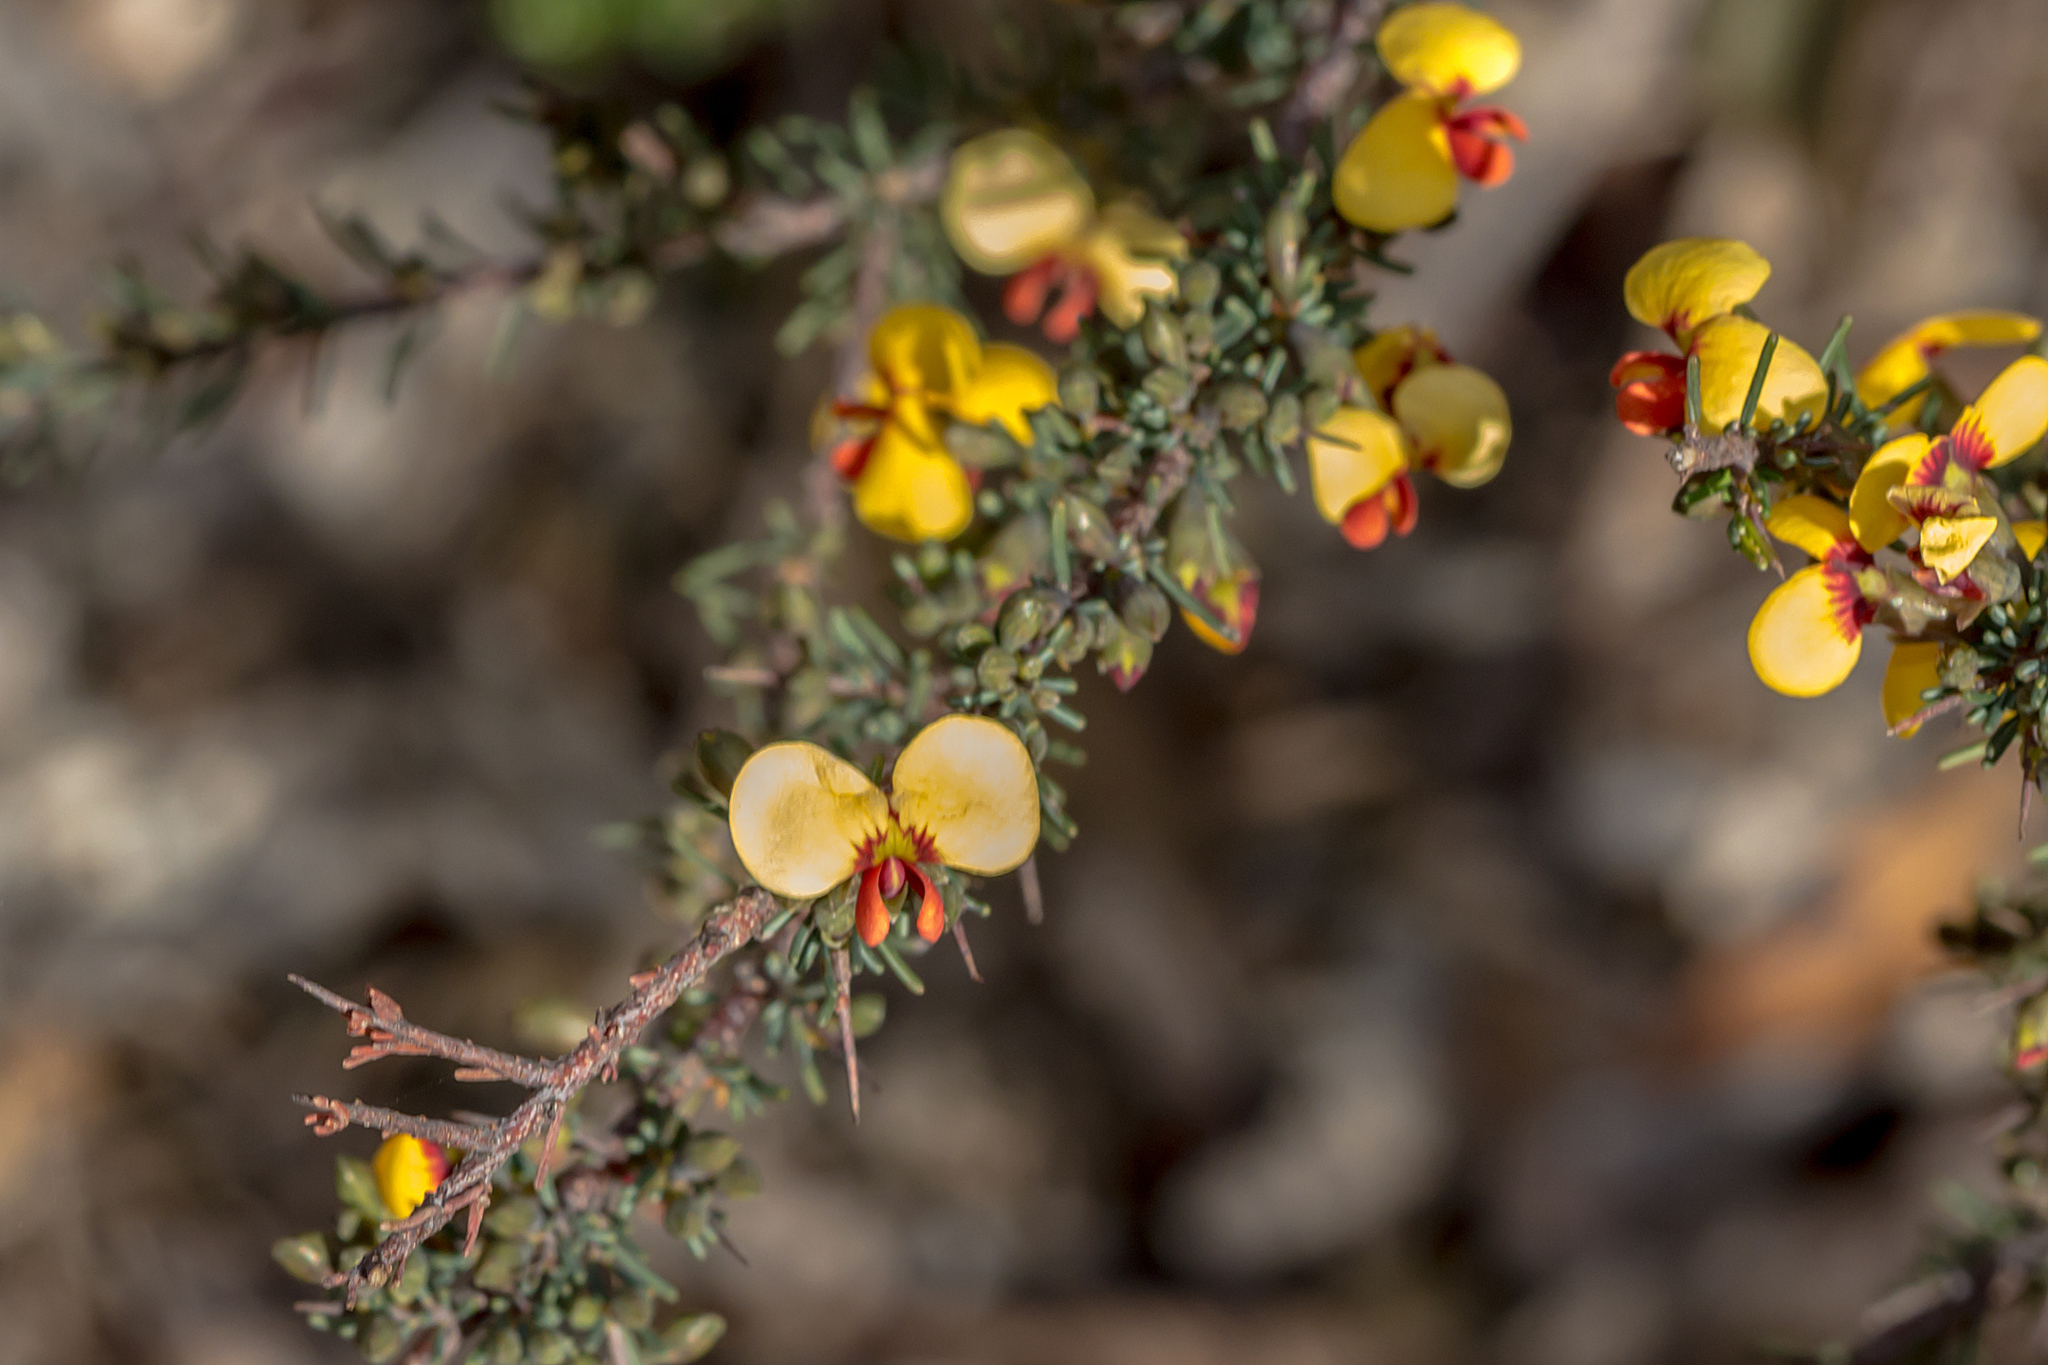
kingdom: Plantae
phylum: Tracheophyta
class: Magnoliopsida
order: Fabales
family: Fabaceae
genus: Dillwynia
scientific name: Dillwynia ramosissima
